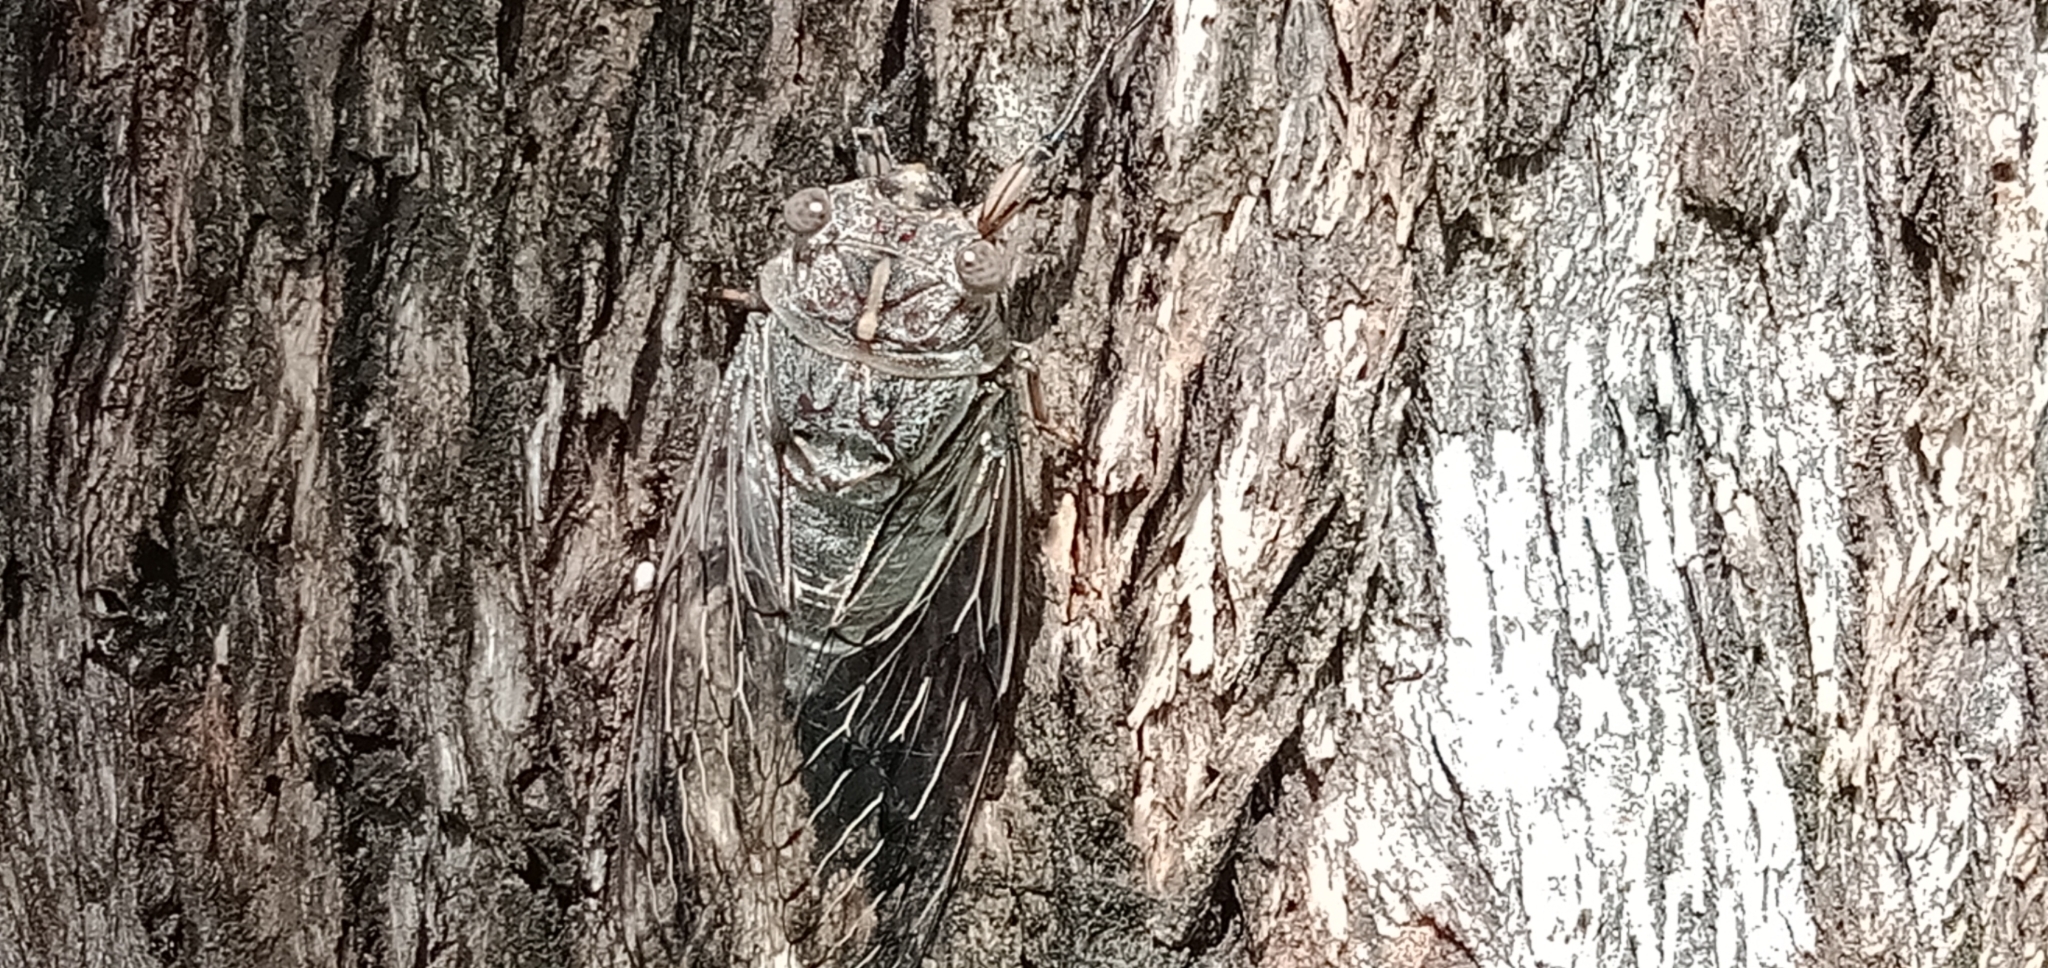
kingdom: Animalia
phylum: Arthropoda
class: Insecta
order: Hemiptera
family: Cicadidae
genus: Henicopsaltria
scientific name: Henicopsaltria eydouxii
